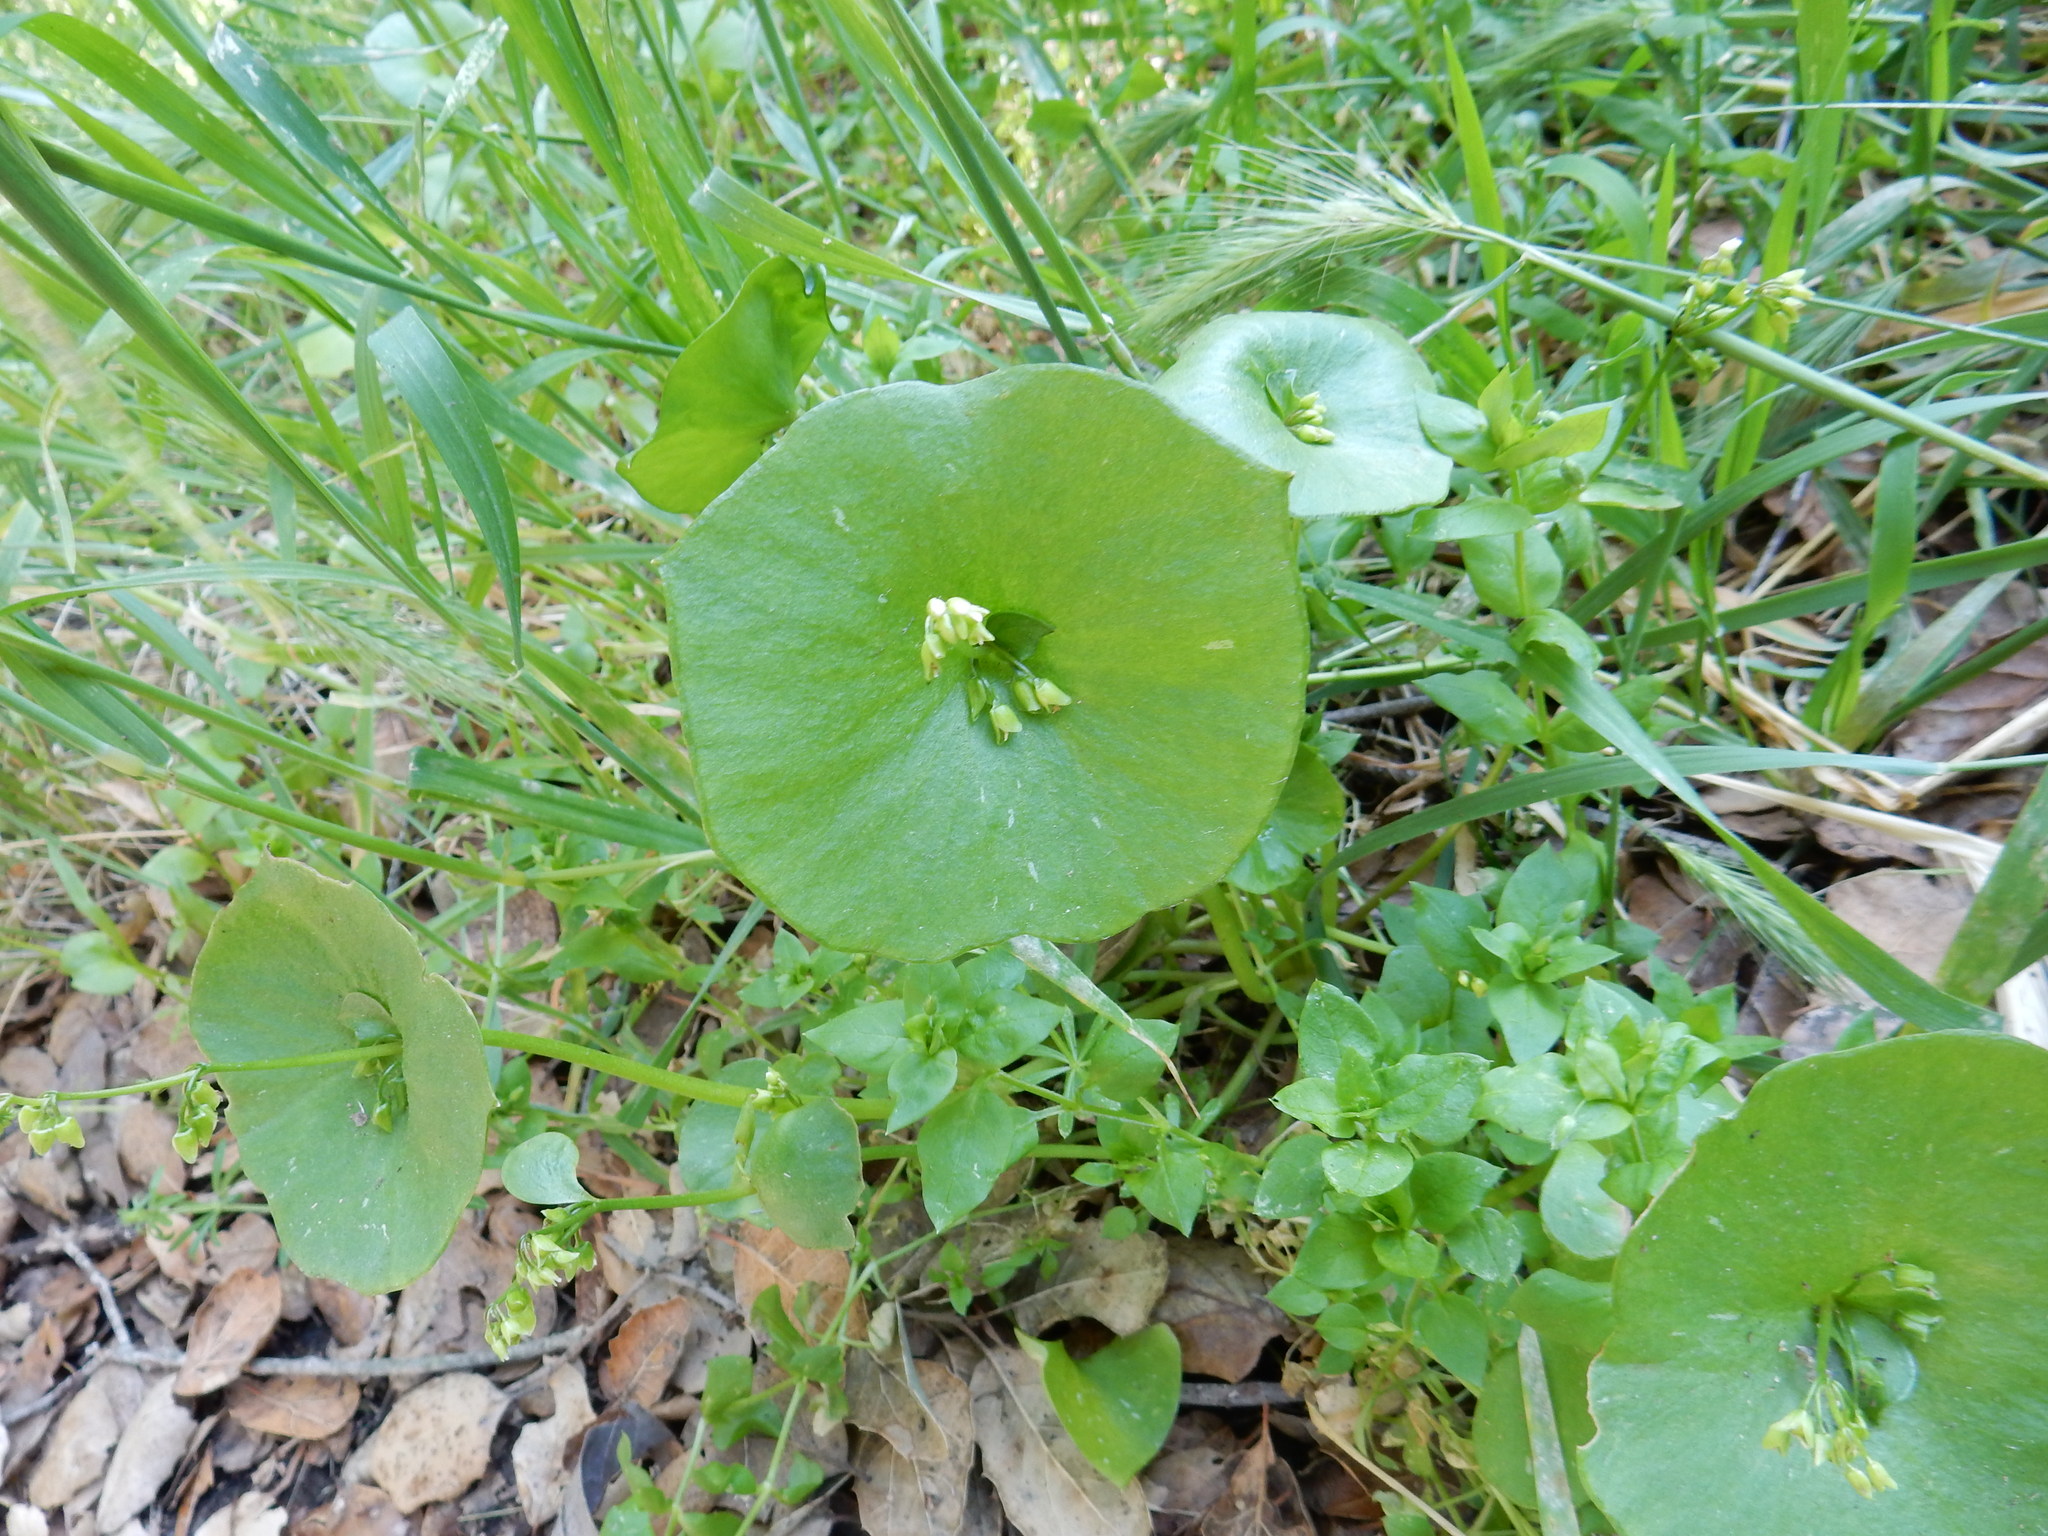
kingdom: Plantae
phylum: Tracheophyta
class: Magnoliopsida
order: Caryophyllales
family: Montiaceae
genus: Claytonia
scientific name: Claytonia perfoliata
